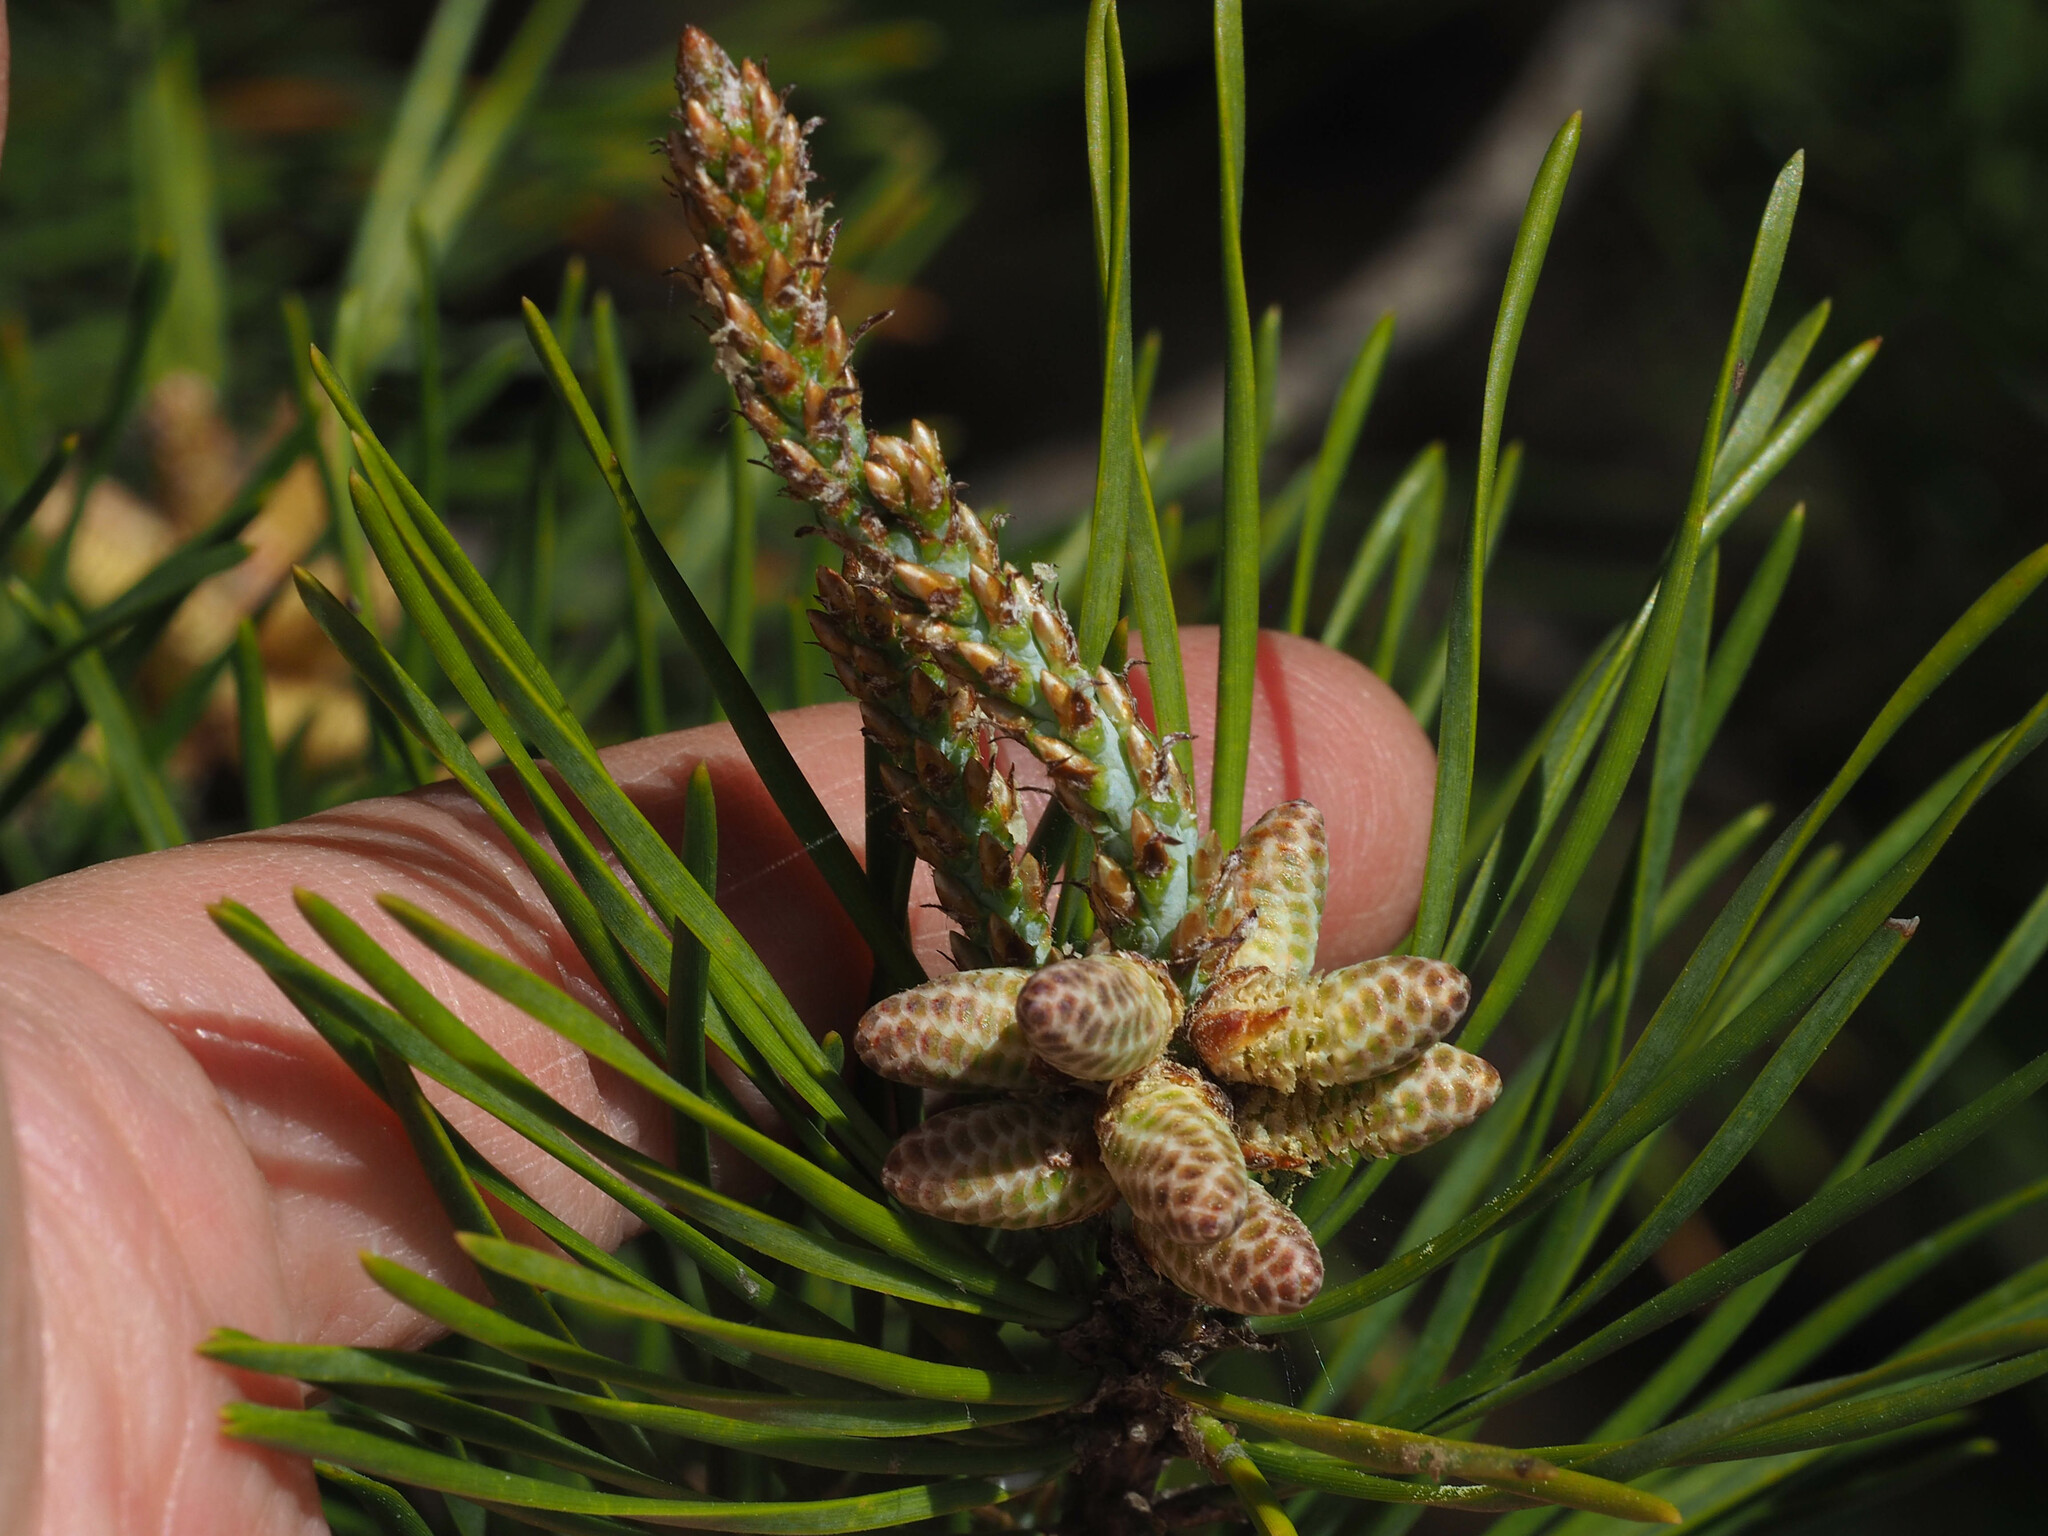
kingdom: Plantae
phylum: Tracheophyta
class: Pinopsida
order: Pinales
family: Pinaceae
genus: Pinus
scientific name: Pinus virginiana
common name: Scrub pine
